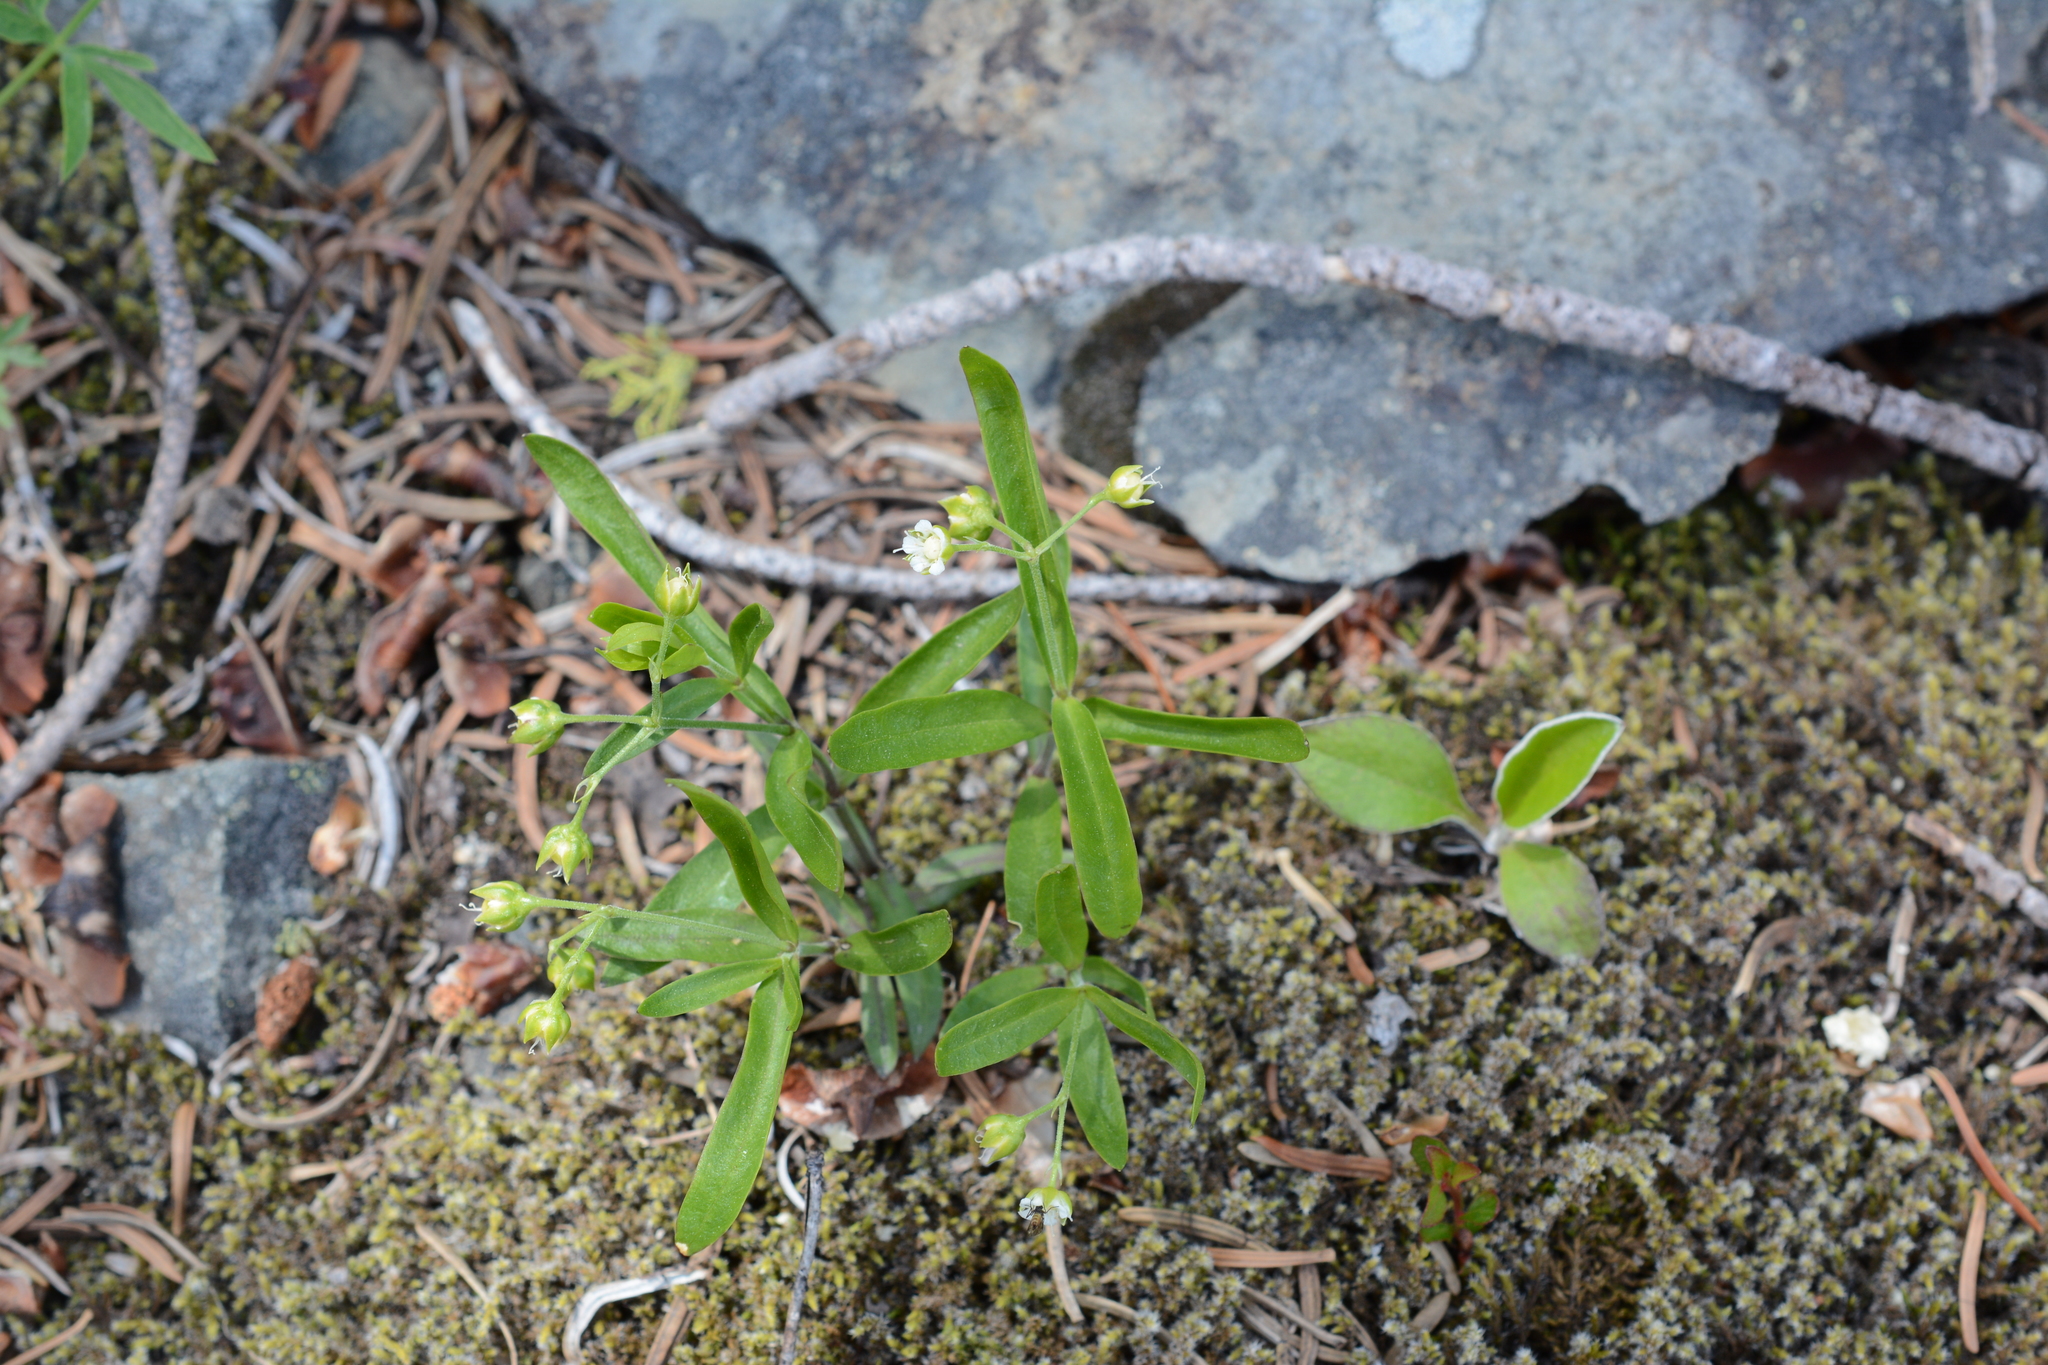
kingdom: Plantae
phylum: Tracheophyta
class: Magnoliopsida
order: Caryophyllales
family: Caryophyllaceae
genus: Moehringia
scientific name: Moehringia macrophylla
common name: Big-leaf sandwort
